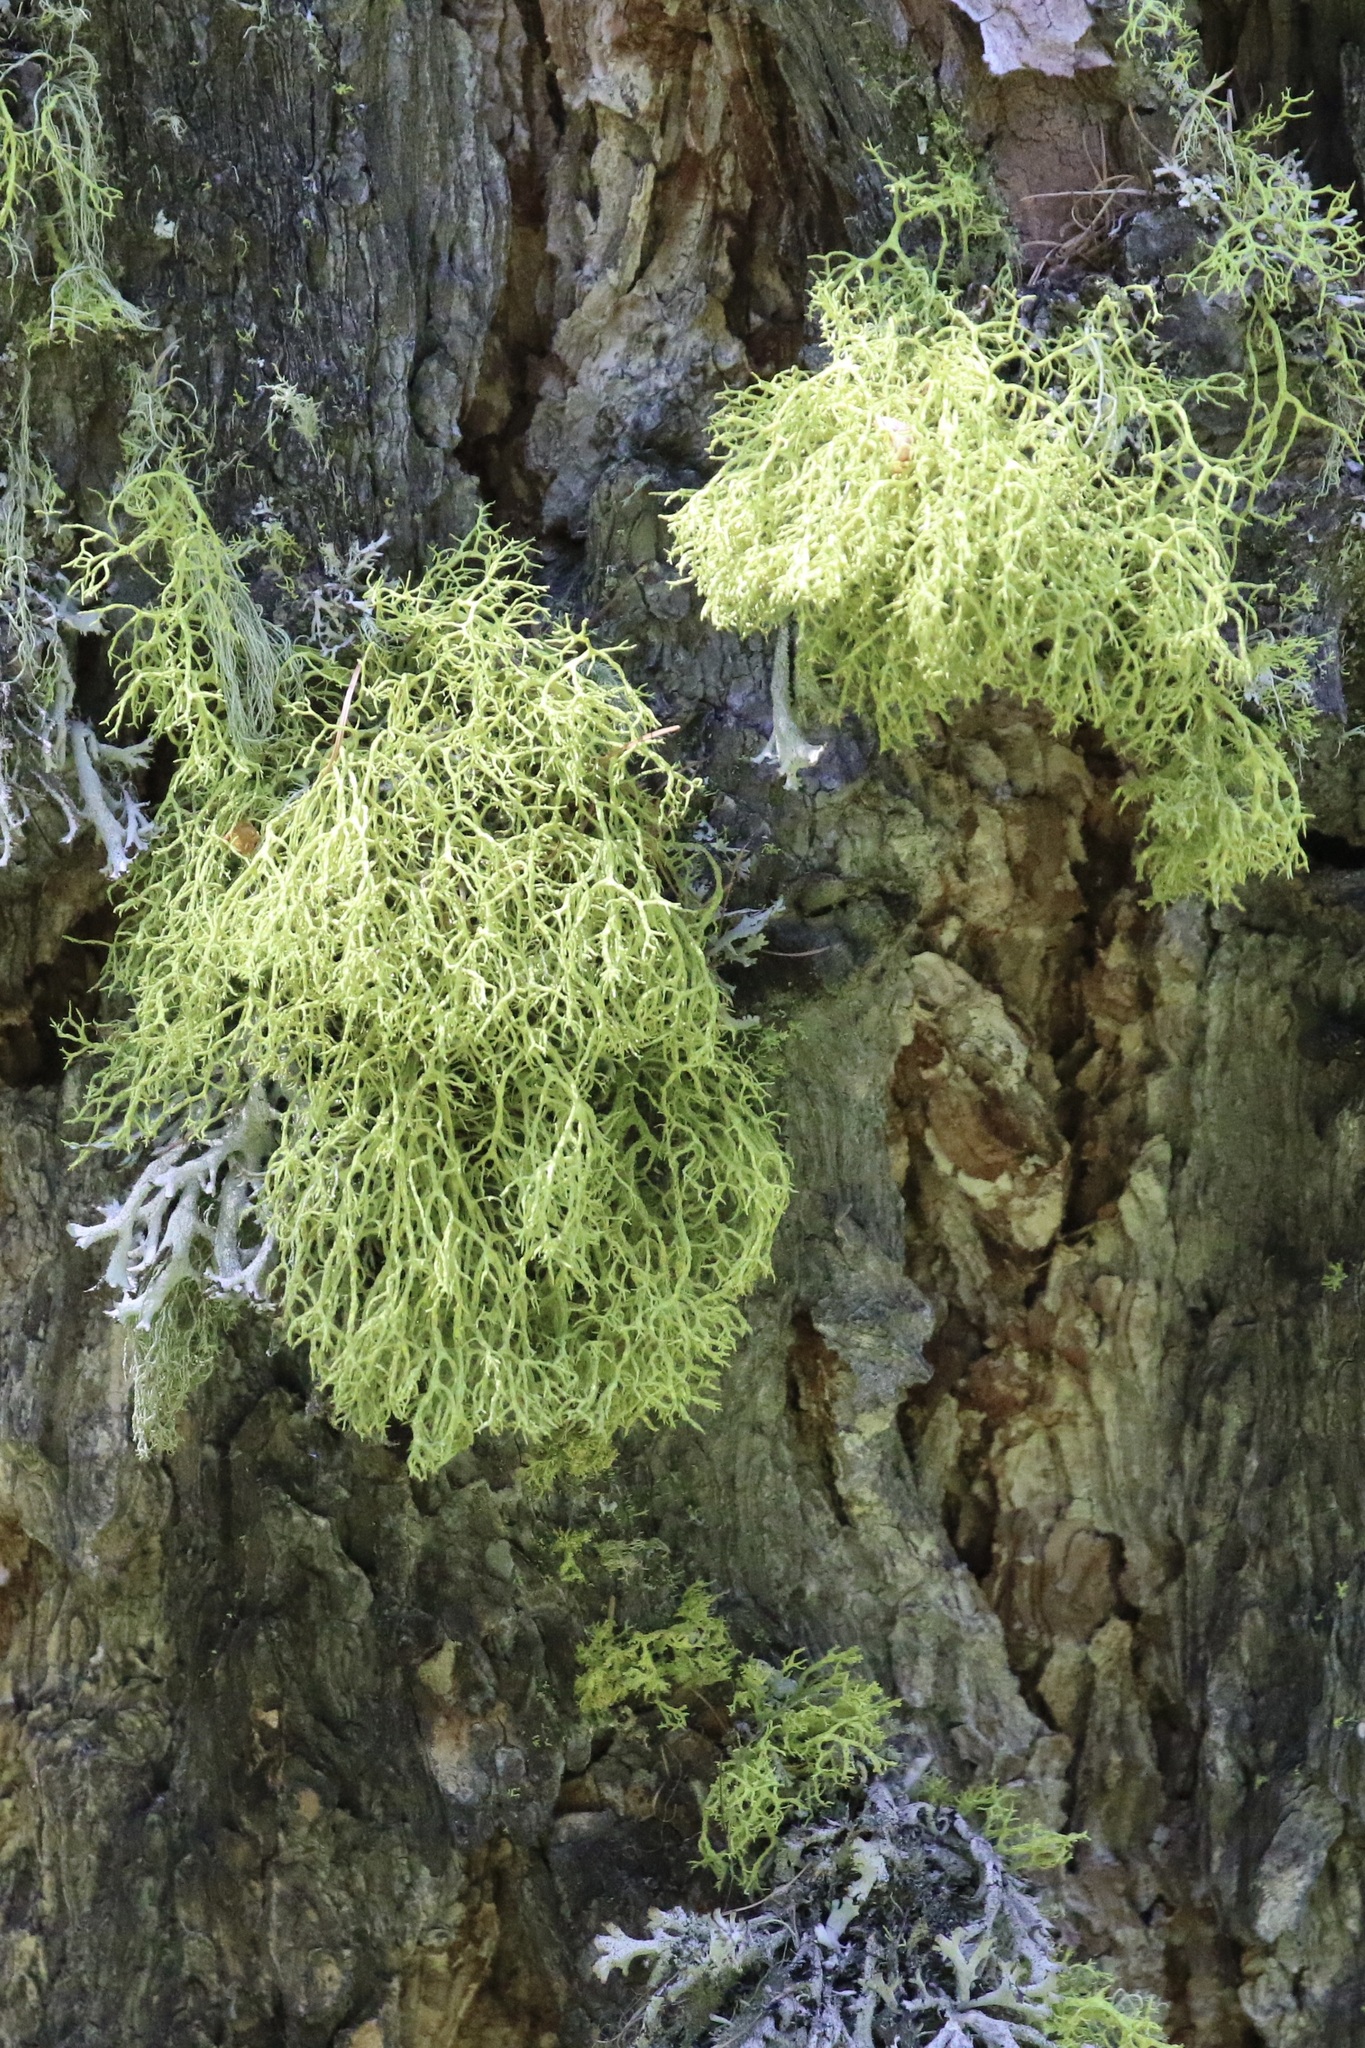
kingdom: Fungi
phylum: Ascomycota
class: Lecanoromycetes
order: Lecanorales
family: Parmeliaceae
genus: Letharia
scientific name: Letharia vulpina
